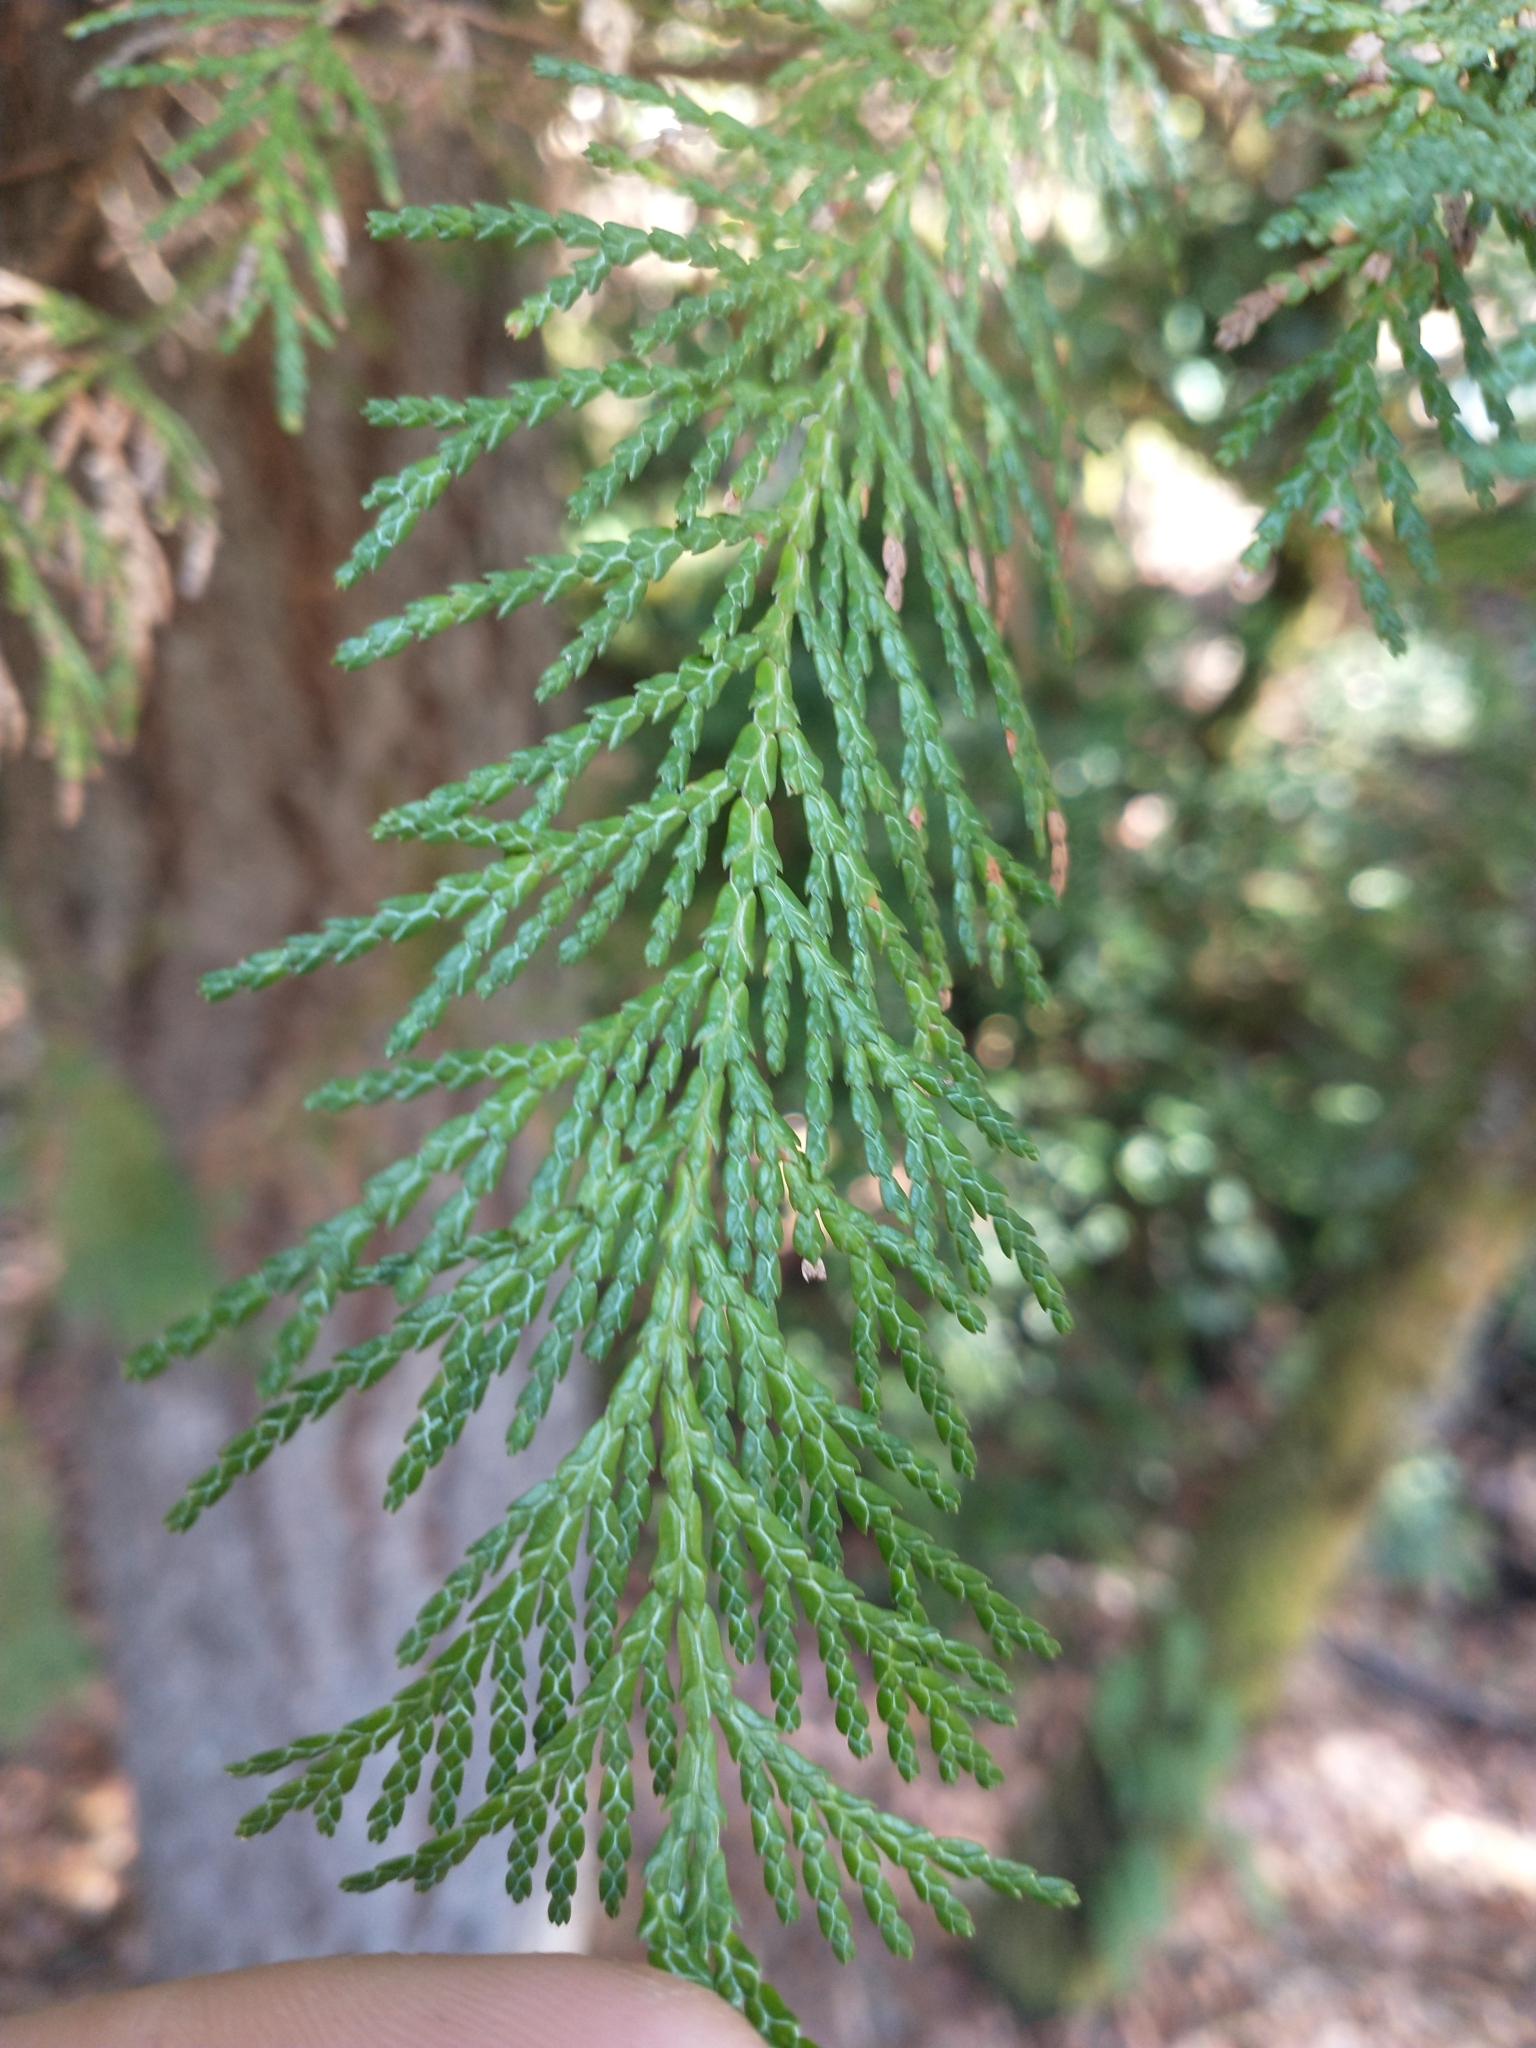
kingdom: Plantae
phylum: Tracheophyta
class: Pinopsida
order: Pinales
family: Cupressaceae
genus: Chamaecyparis
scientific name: Chamaecyparis lawsoniana
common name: Lawson's cypress
